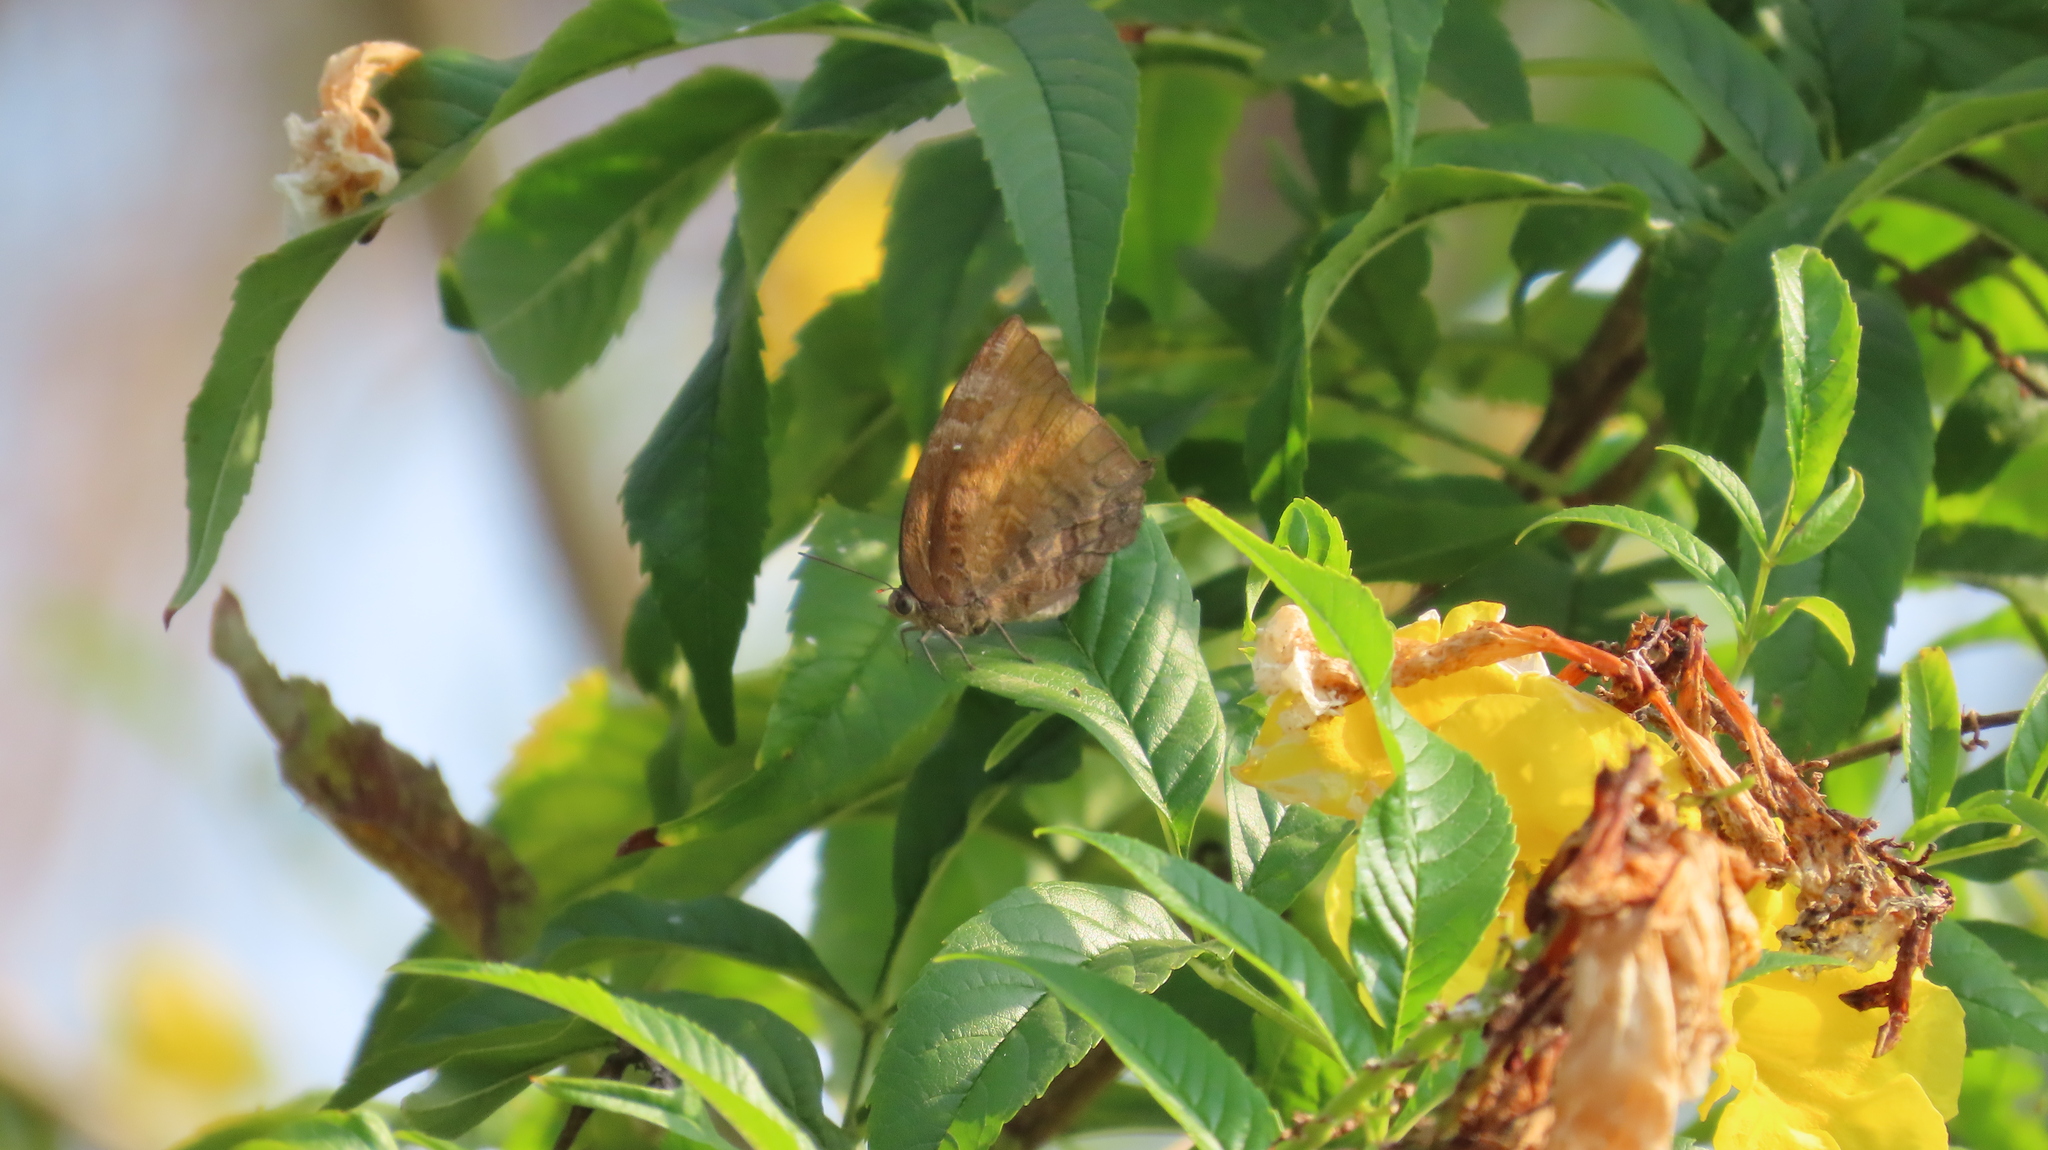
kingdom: Animalia
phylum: Arthropoda
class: Insecta
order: Lepidoptera
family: Lycaenidae
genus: Arhopala
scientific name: Arhopala centaurus
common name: Dull oak-blue
